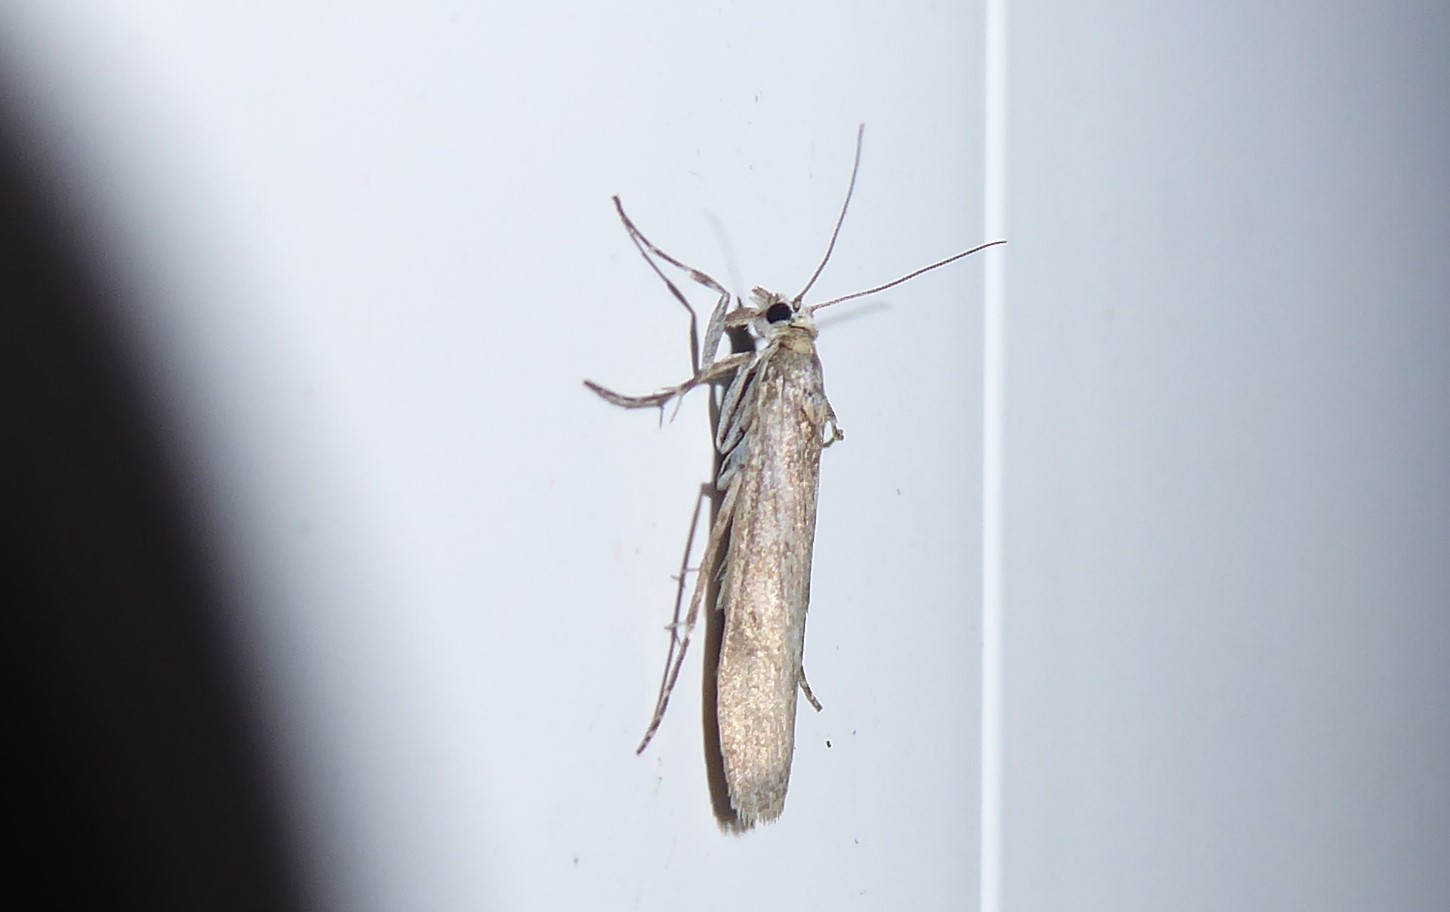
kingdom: Animalia
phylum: Arthropoda
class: Insecta
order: Lepidoptera
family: Crambidae
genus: Eudonia
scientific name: Eudonia leptalea
